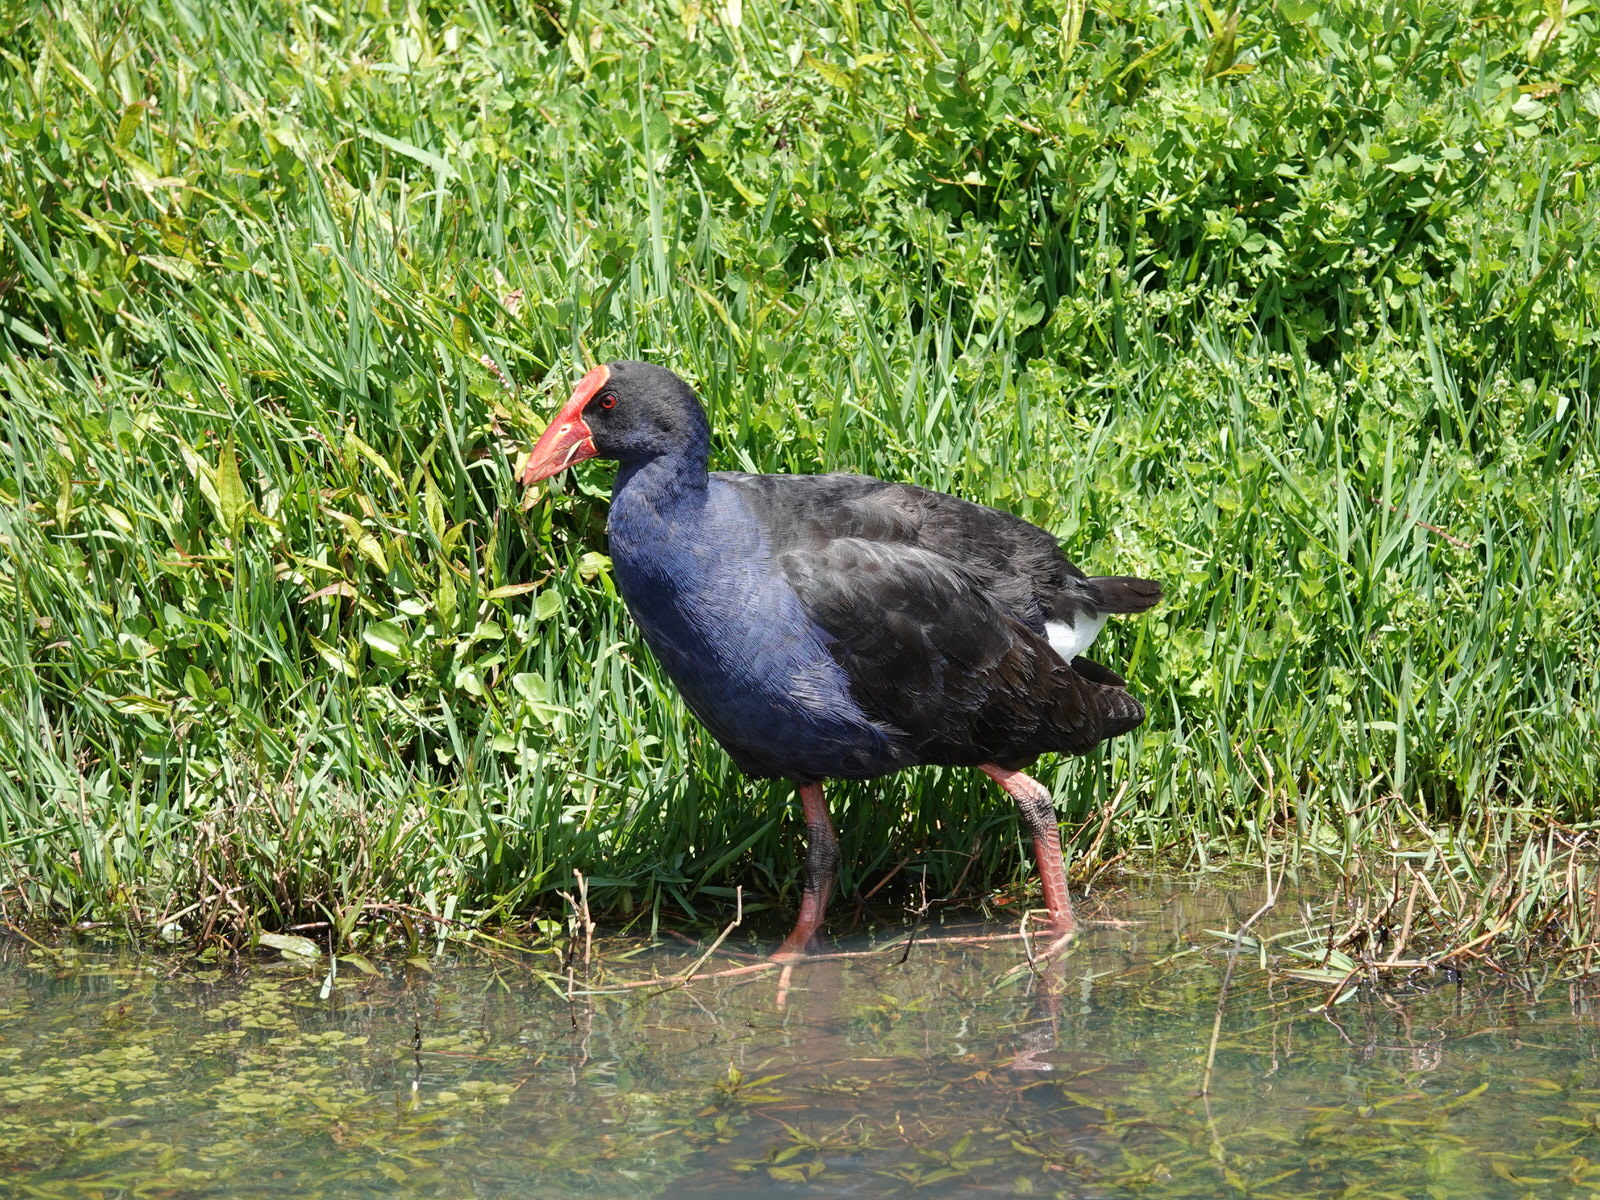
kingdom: Animalia
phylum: Chordata
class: Aves
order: Gruiformes
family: Rallidae
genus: Porphyrio
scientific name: Porphyrio melanotus
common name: Australasian swamphen
